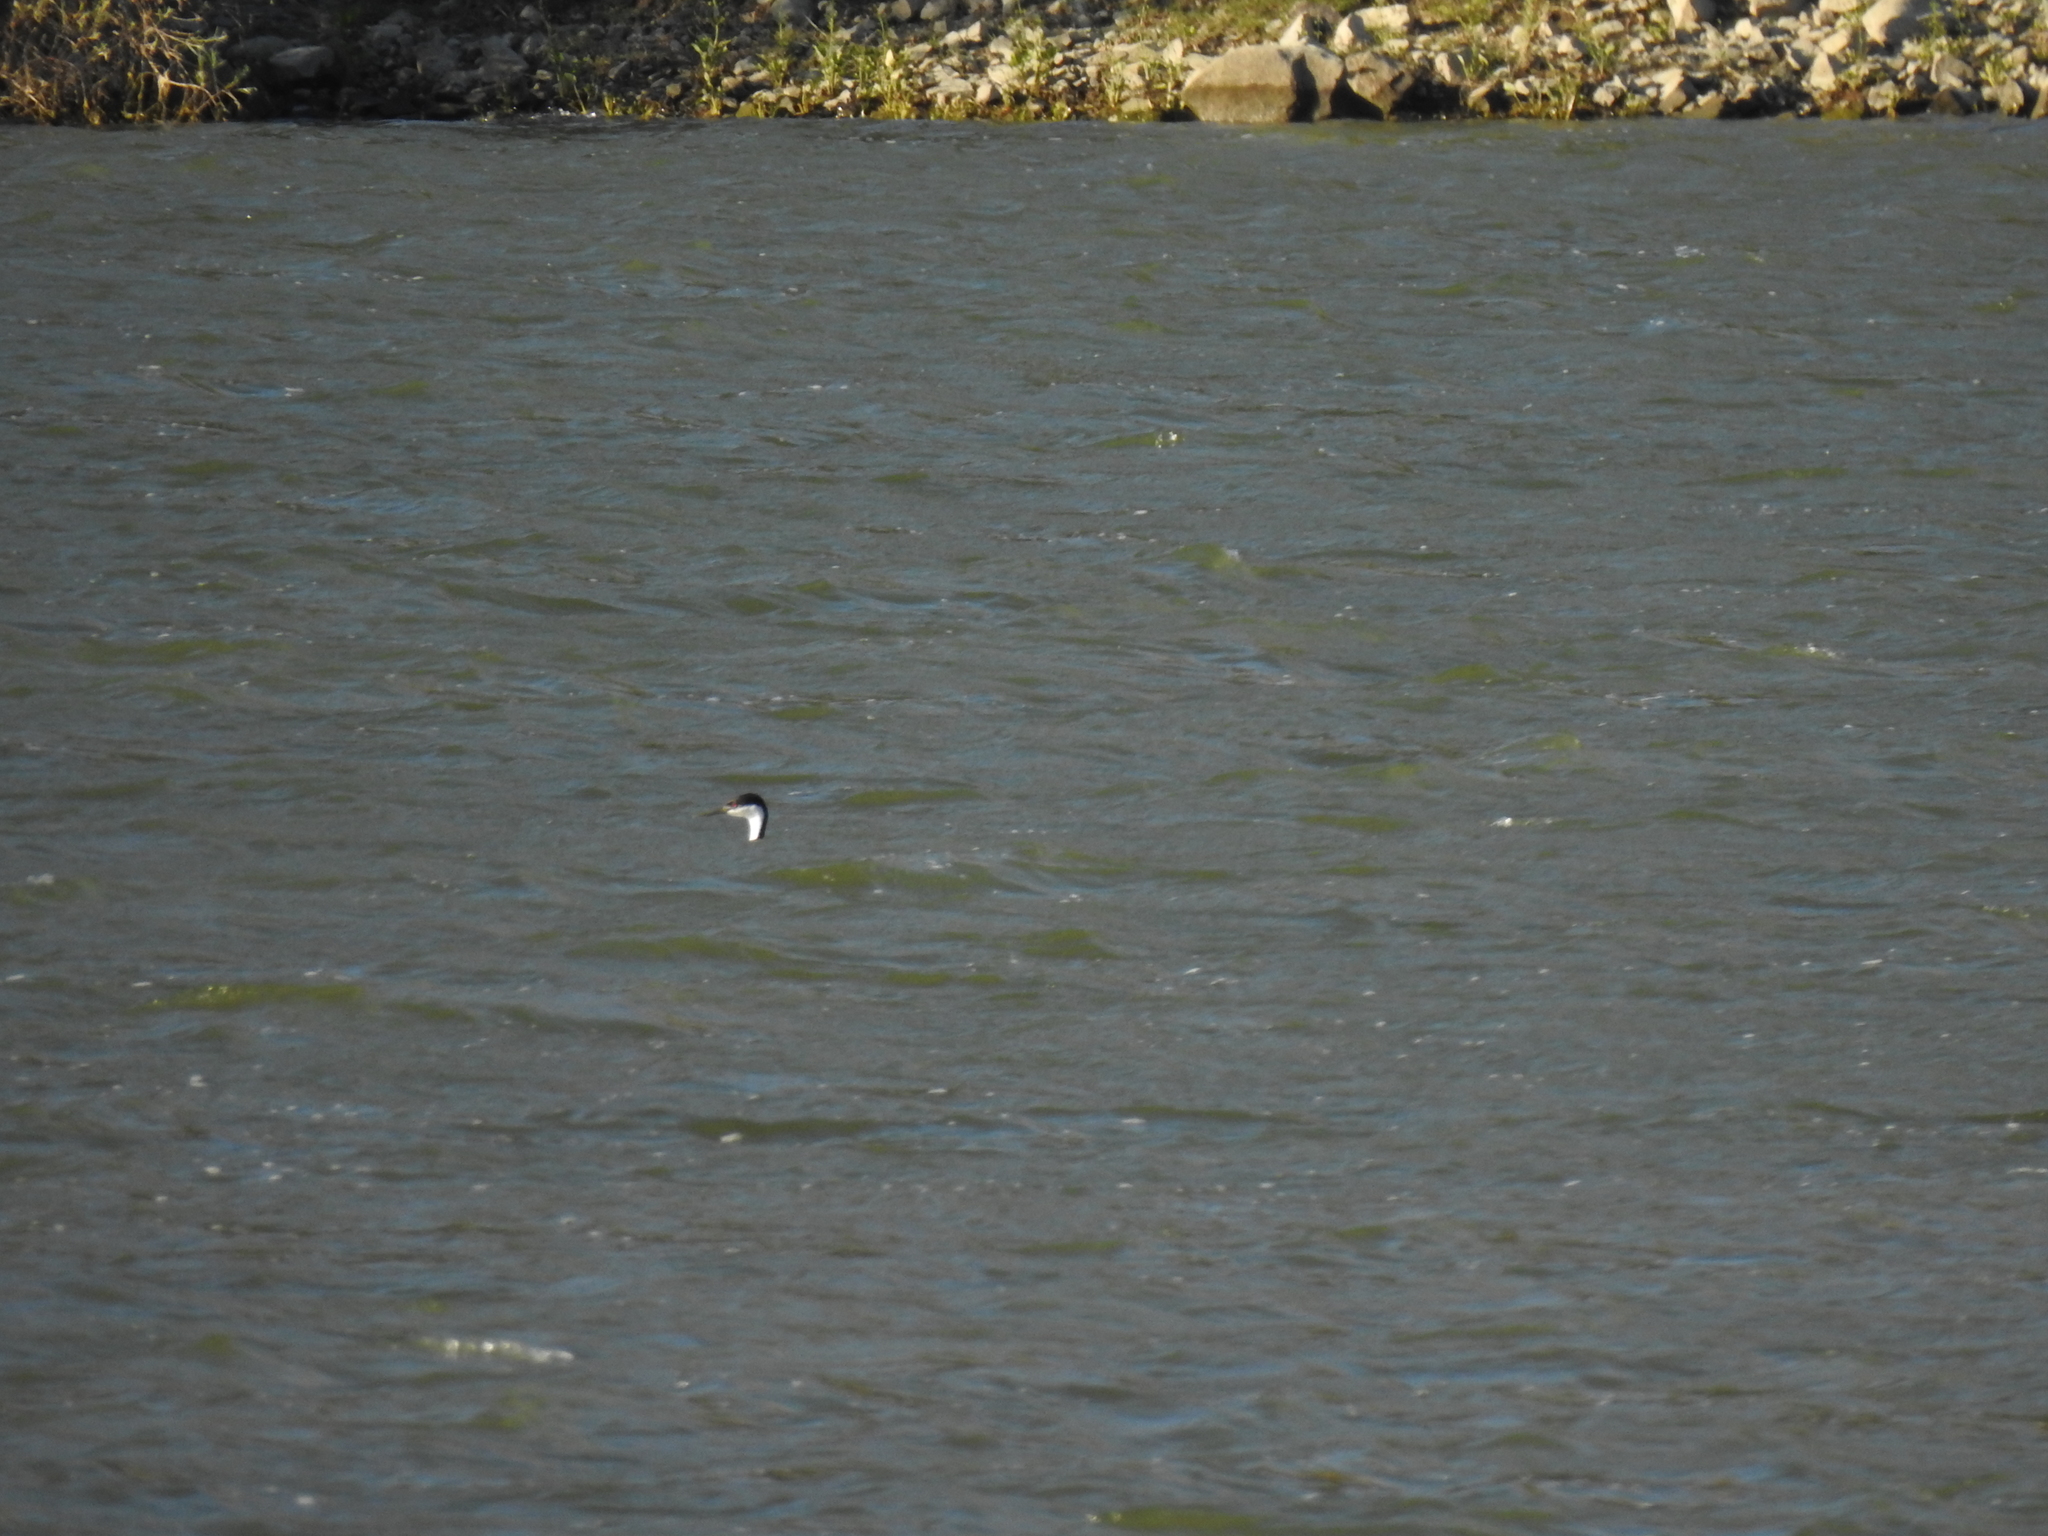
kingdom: Animalia
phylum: Chordata
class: Aves
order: Podicipediformes
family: Podicipedidae
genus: Aechmophorus
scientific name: Aechmophorus occidentalis
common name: Western grebe
